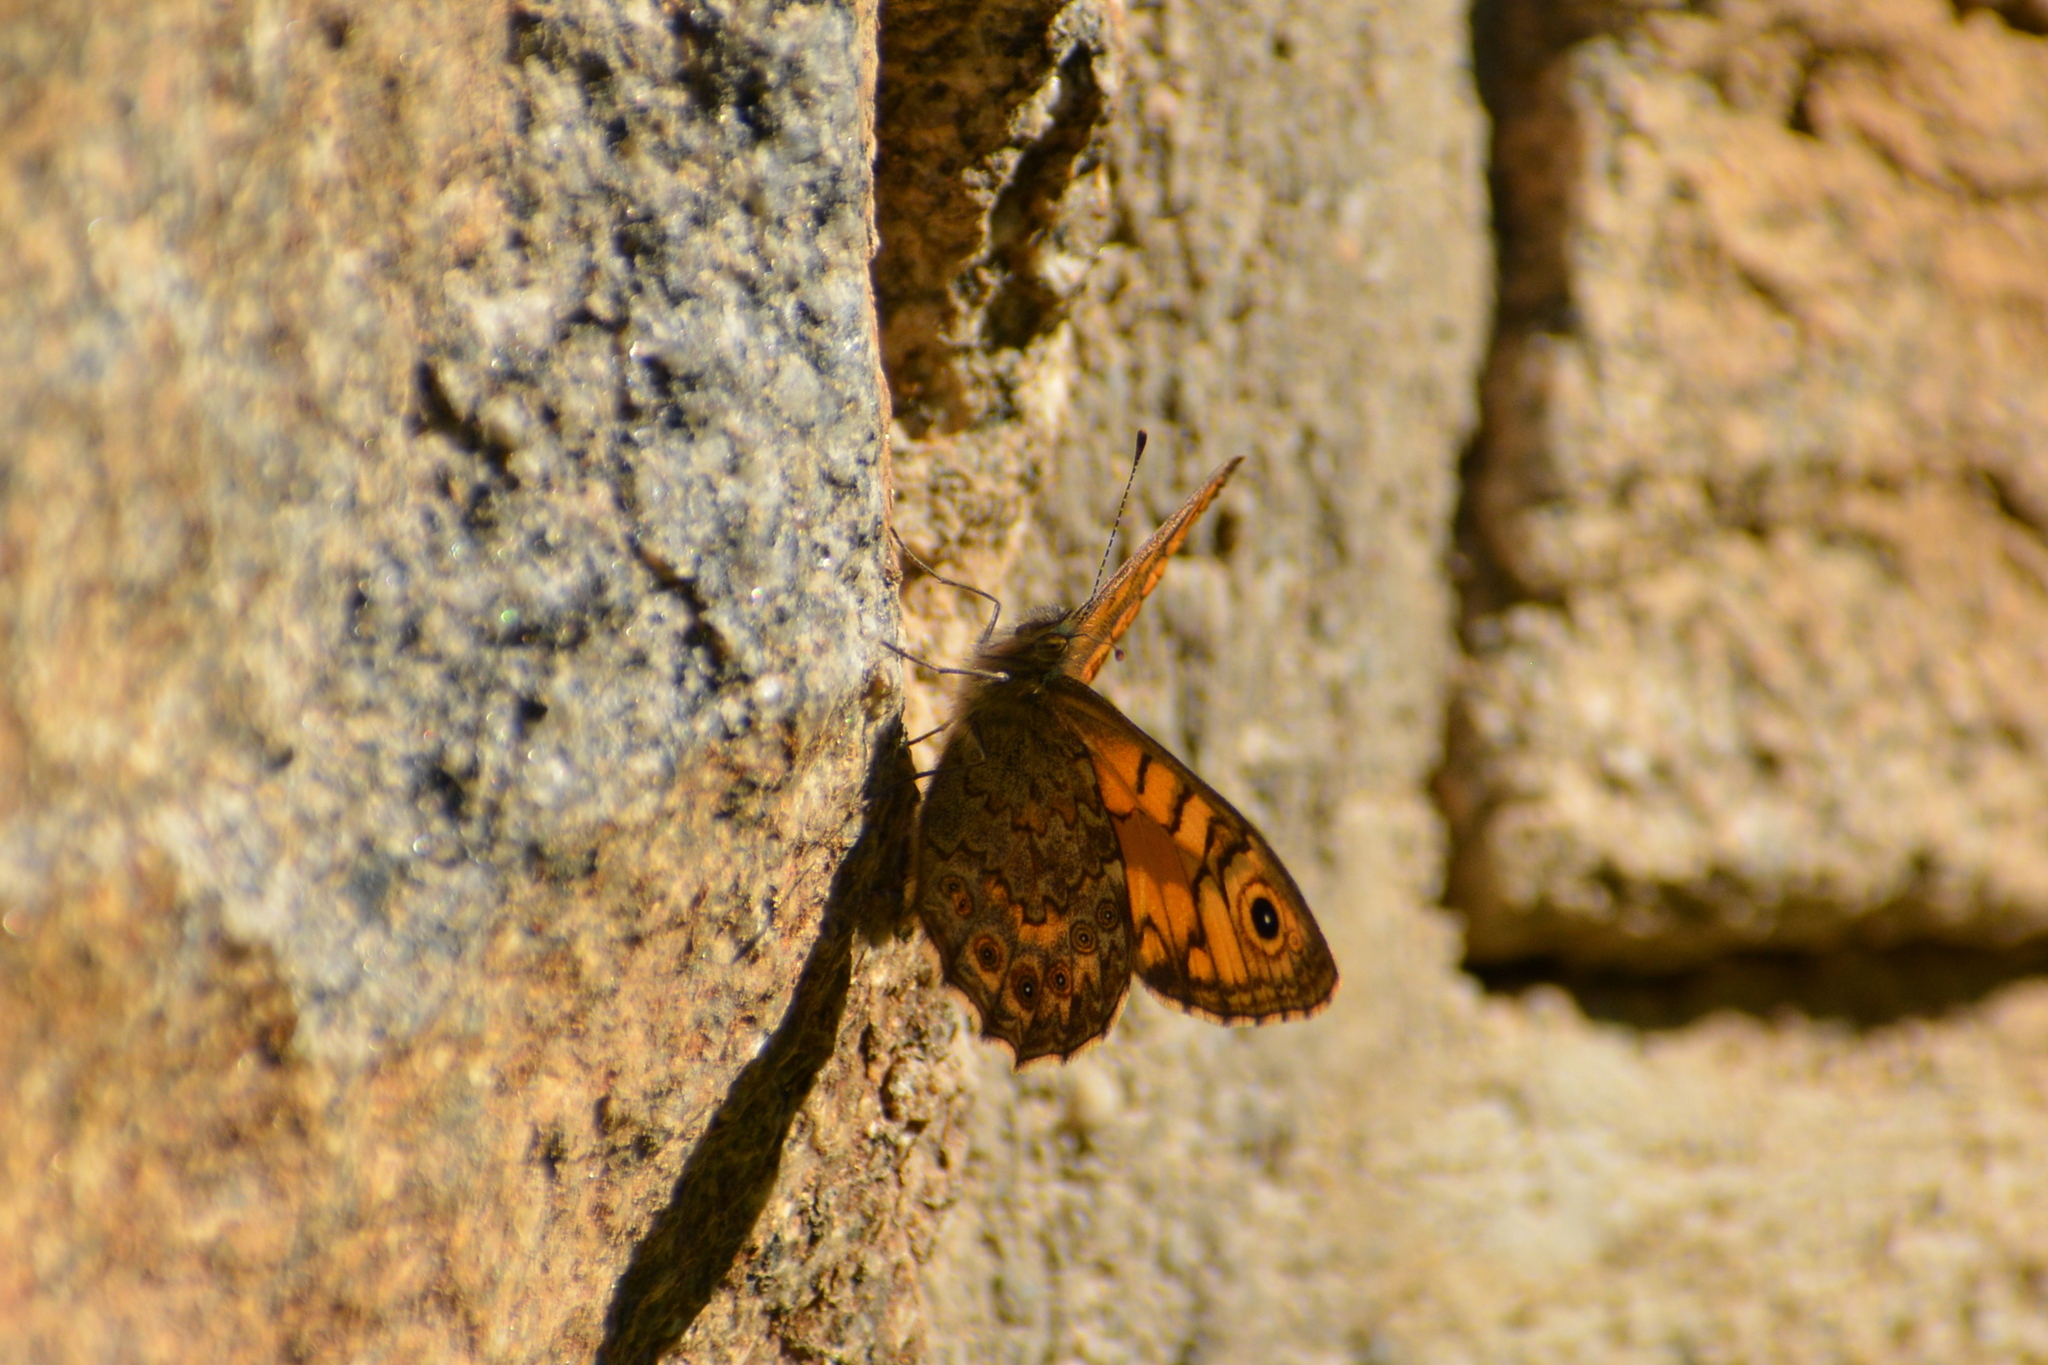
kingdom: Animalia
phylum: Arthropoda
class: Insecta
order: Lepidoptera
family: Nymphalidae
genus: Pararge
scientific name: Pararge Lasiommata megera
